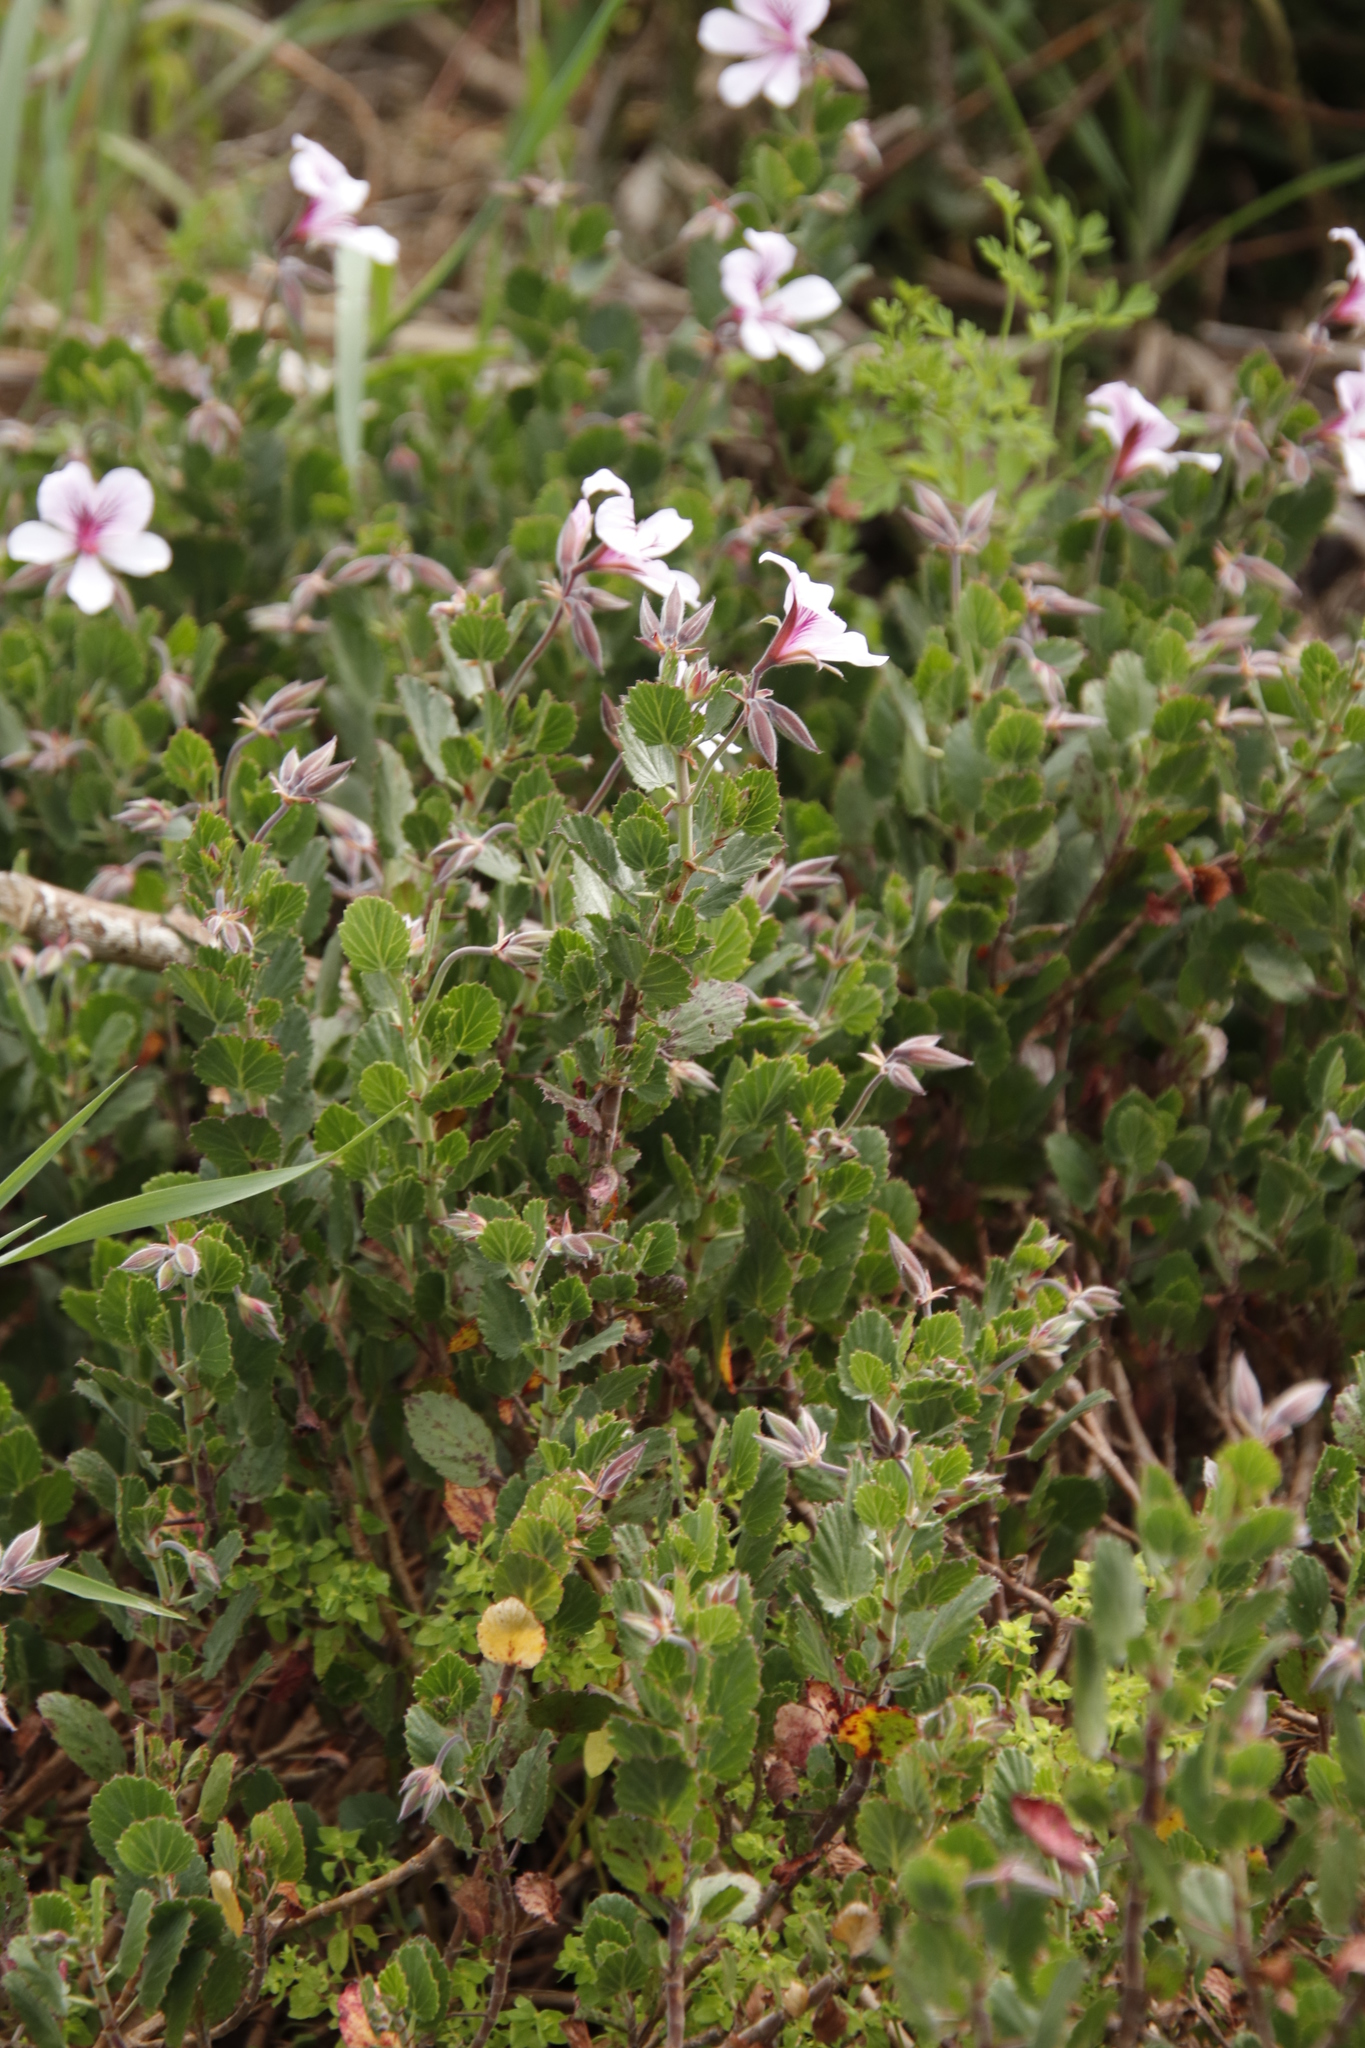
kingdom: Plantae
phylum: Tracheophyta
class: Magnoliopsida
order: Geraniales
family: Geraniaceae
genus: Pelargonium
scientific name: Pelargonium betulinum
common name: Birch-leaf pelargonium
